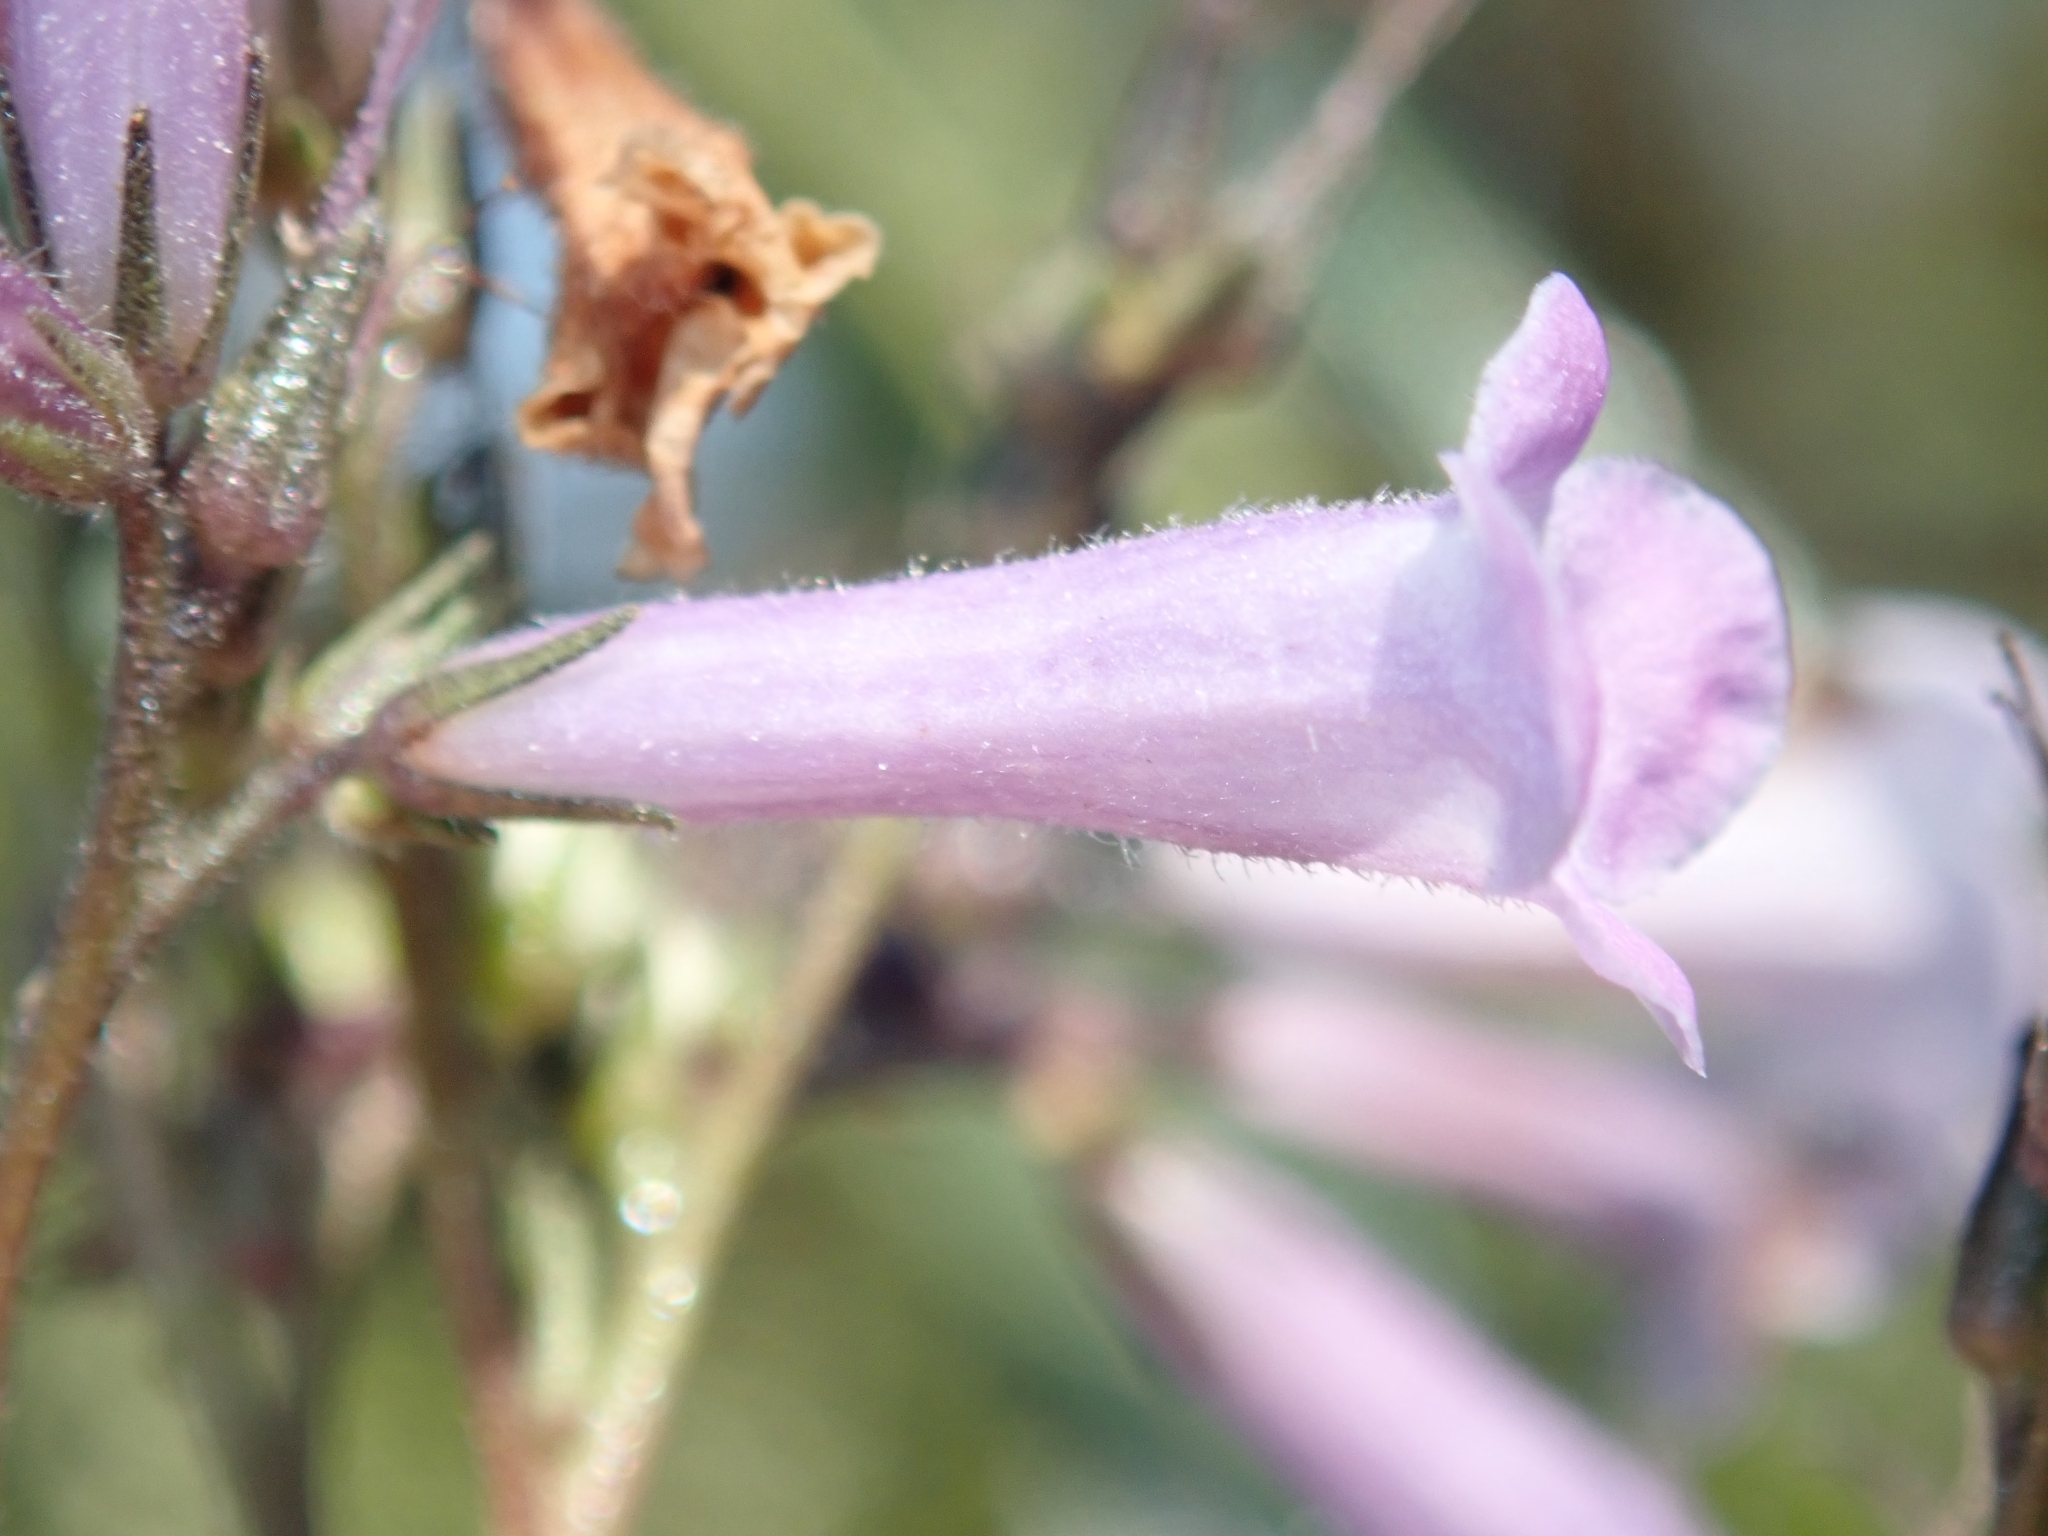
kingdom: Plantae
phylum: Tracheophyta
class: Magnoliopsida
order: Boraginales
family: Namaceae
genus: Eriodictyon
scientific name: Eriodictyon californicum
